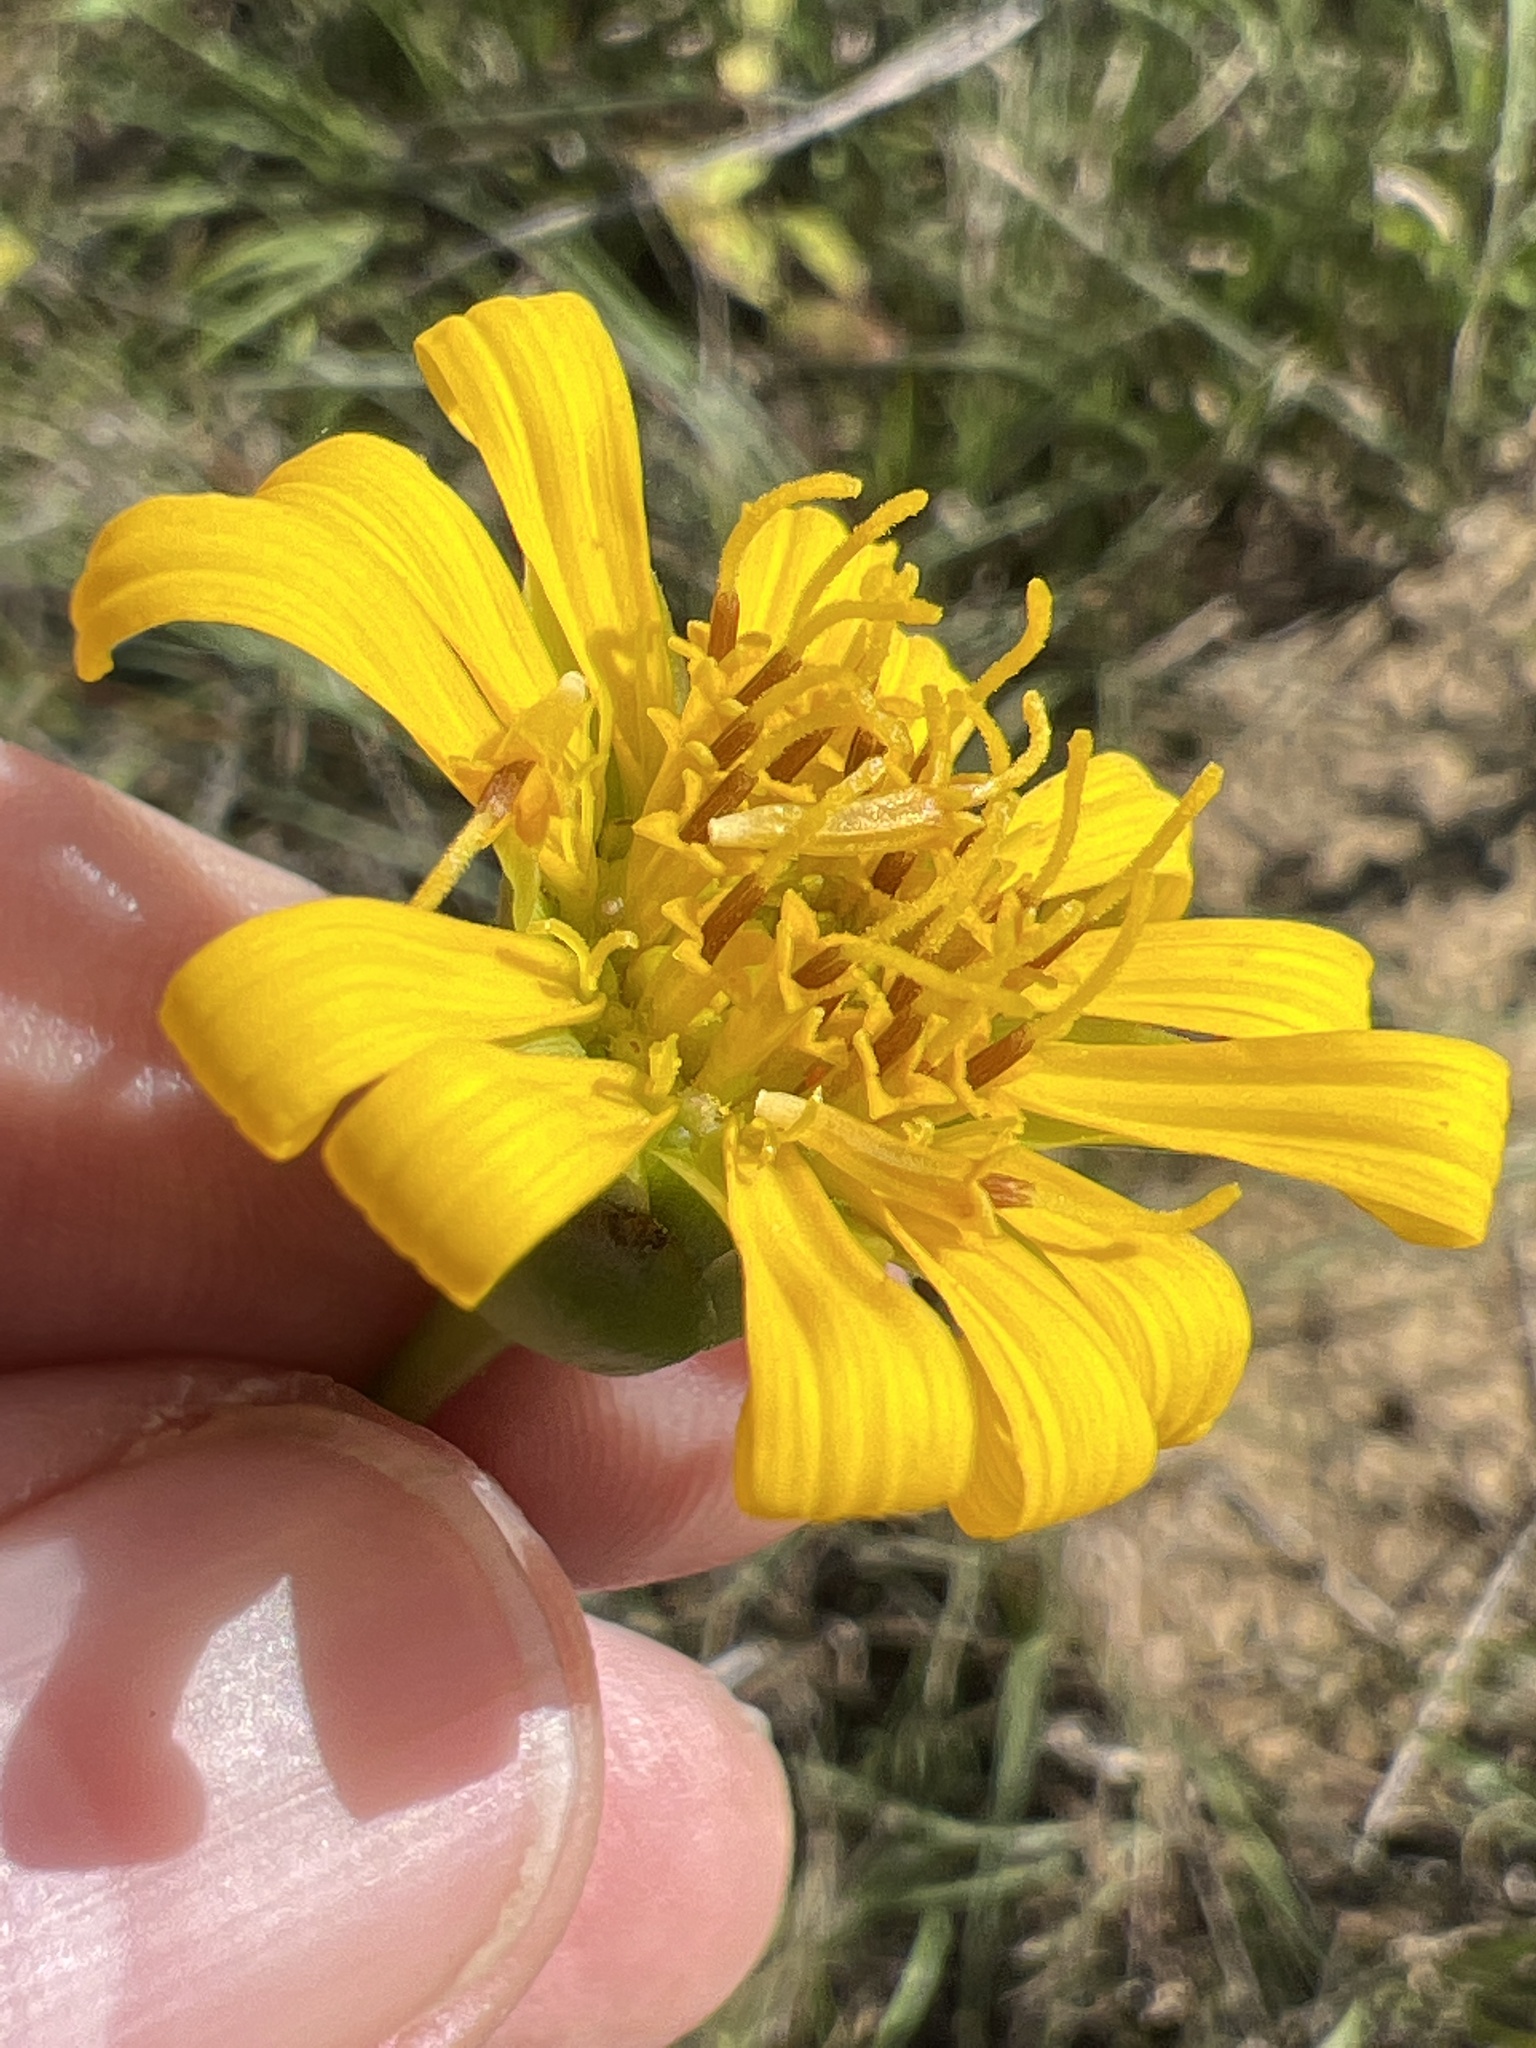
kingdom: Plantae
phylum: Tracheophyta
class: Magnoliopsida
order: Asterales
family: Asteraceae
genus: Silphium
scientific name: Silphium terebinthinaceum
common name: Basal-leaf rosinweed
